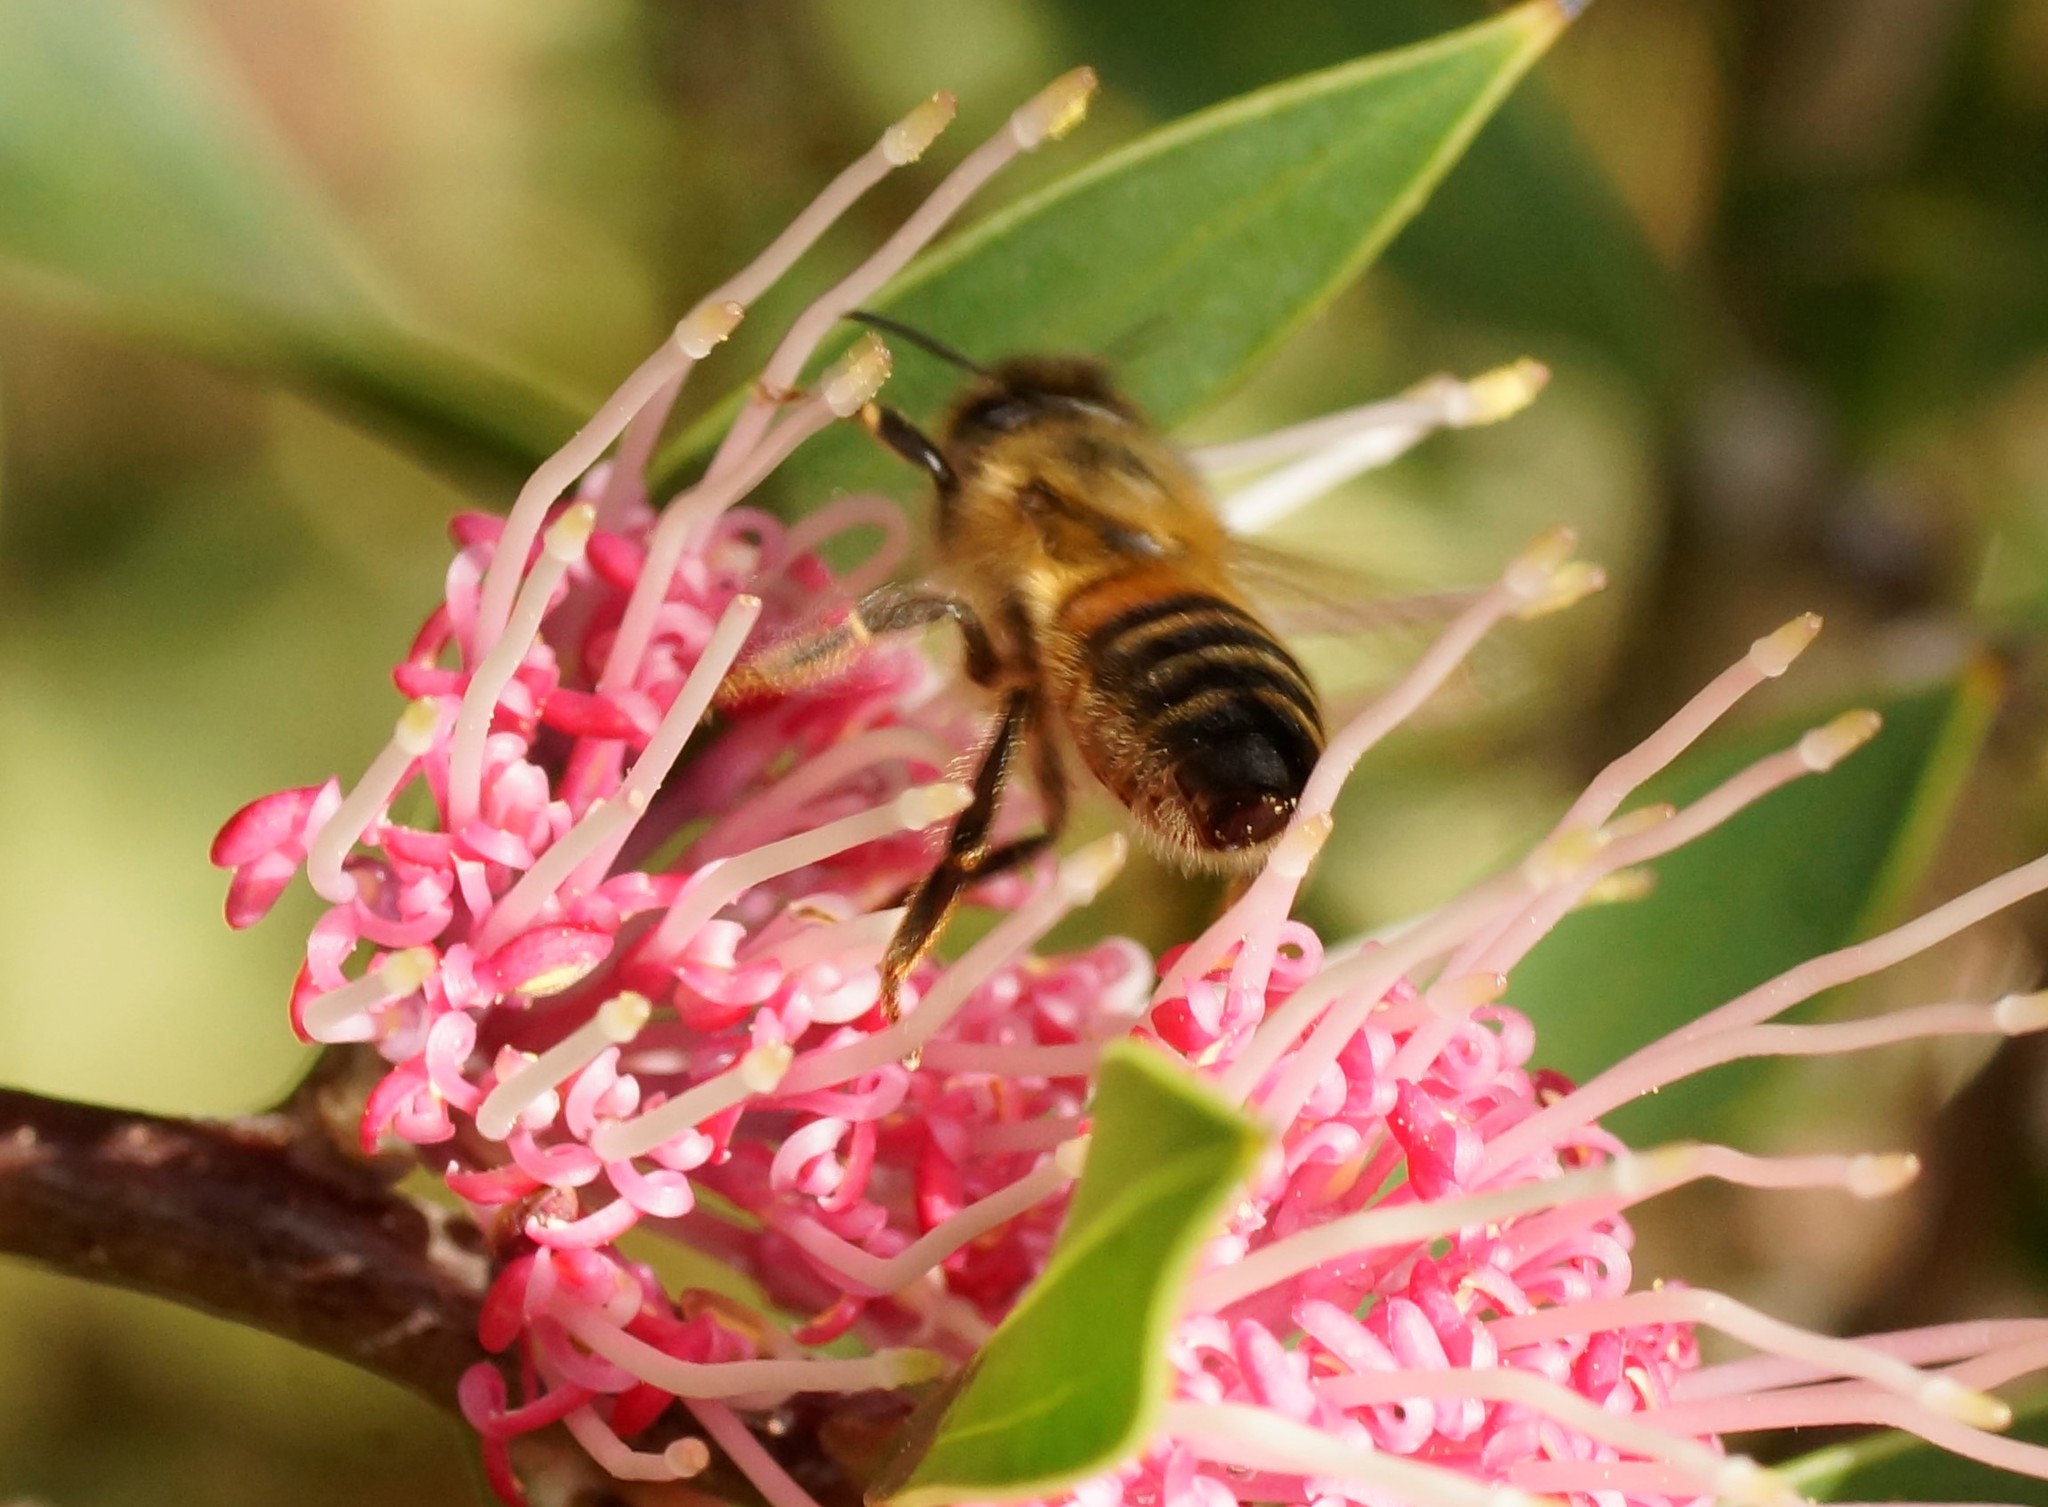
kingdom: Animalia
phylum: Arthropoda
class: Insecta
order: Hymenoptera
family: Apidae
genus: Apis
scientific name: Apis mellifera
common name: Honey bee
